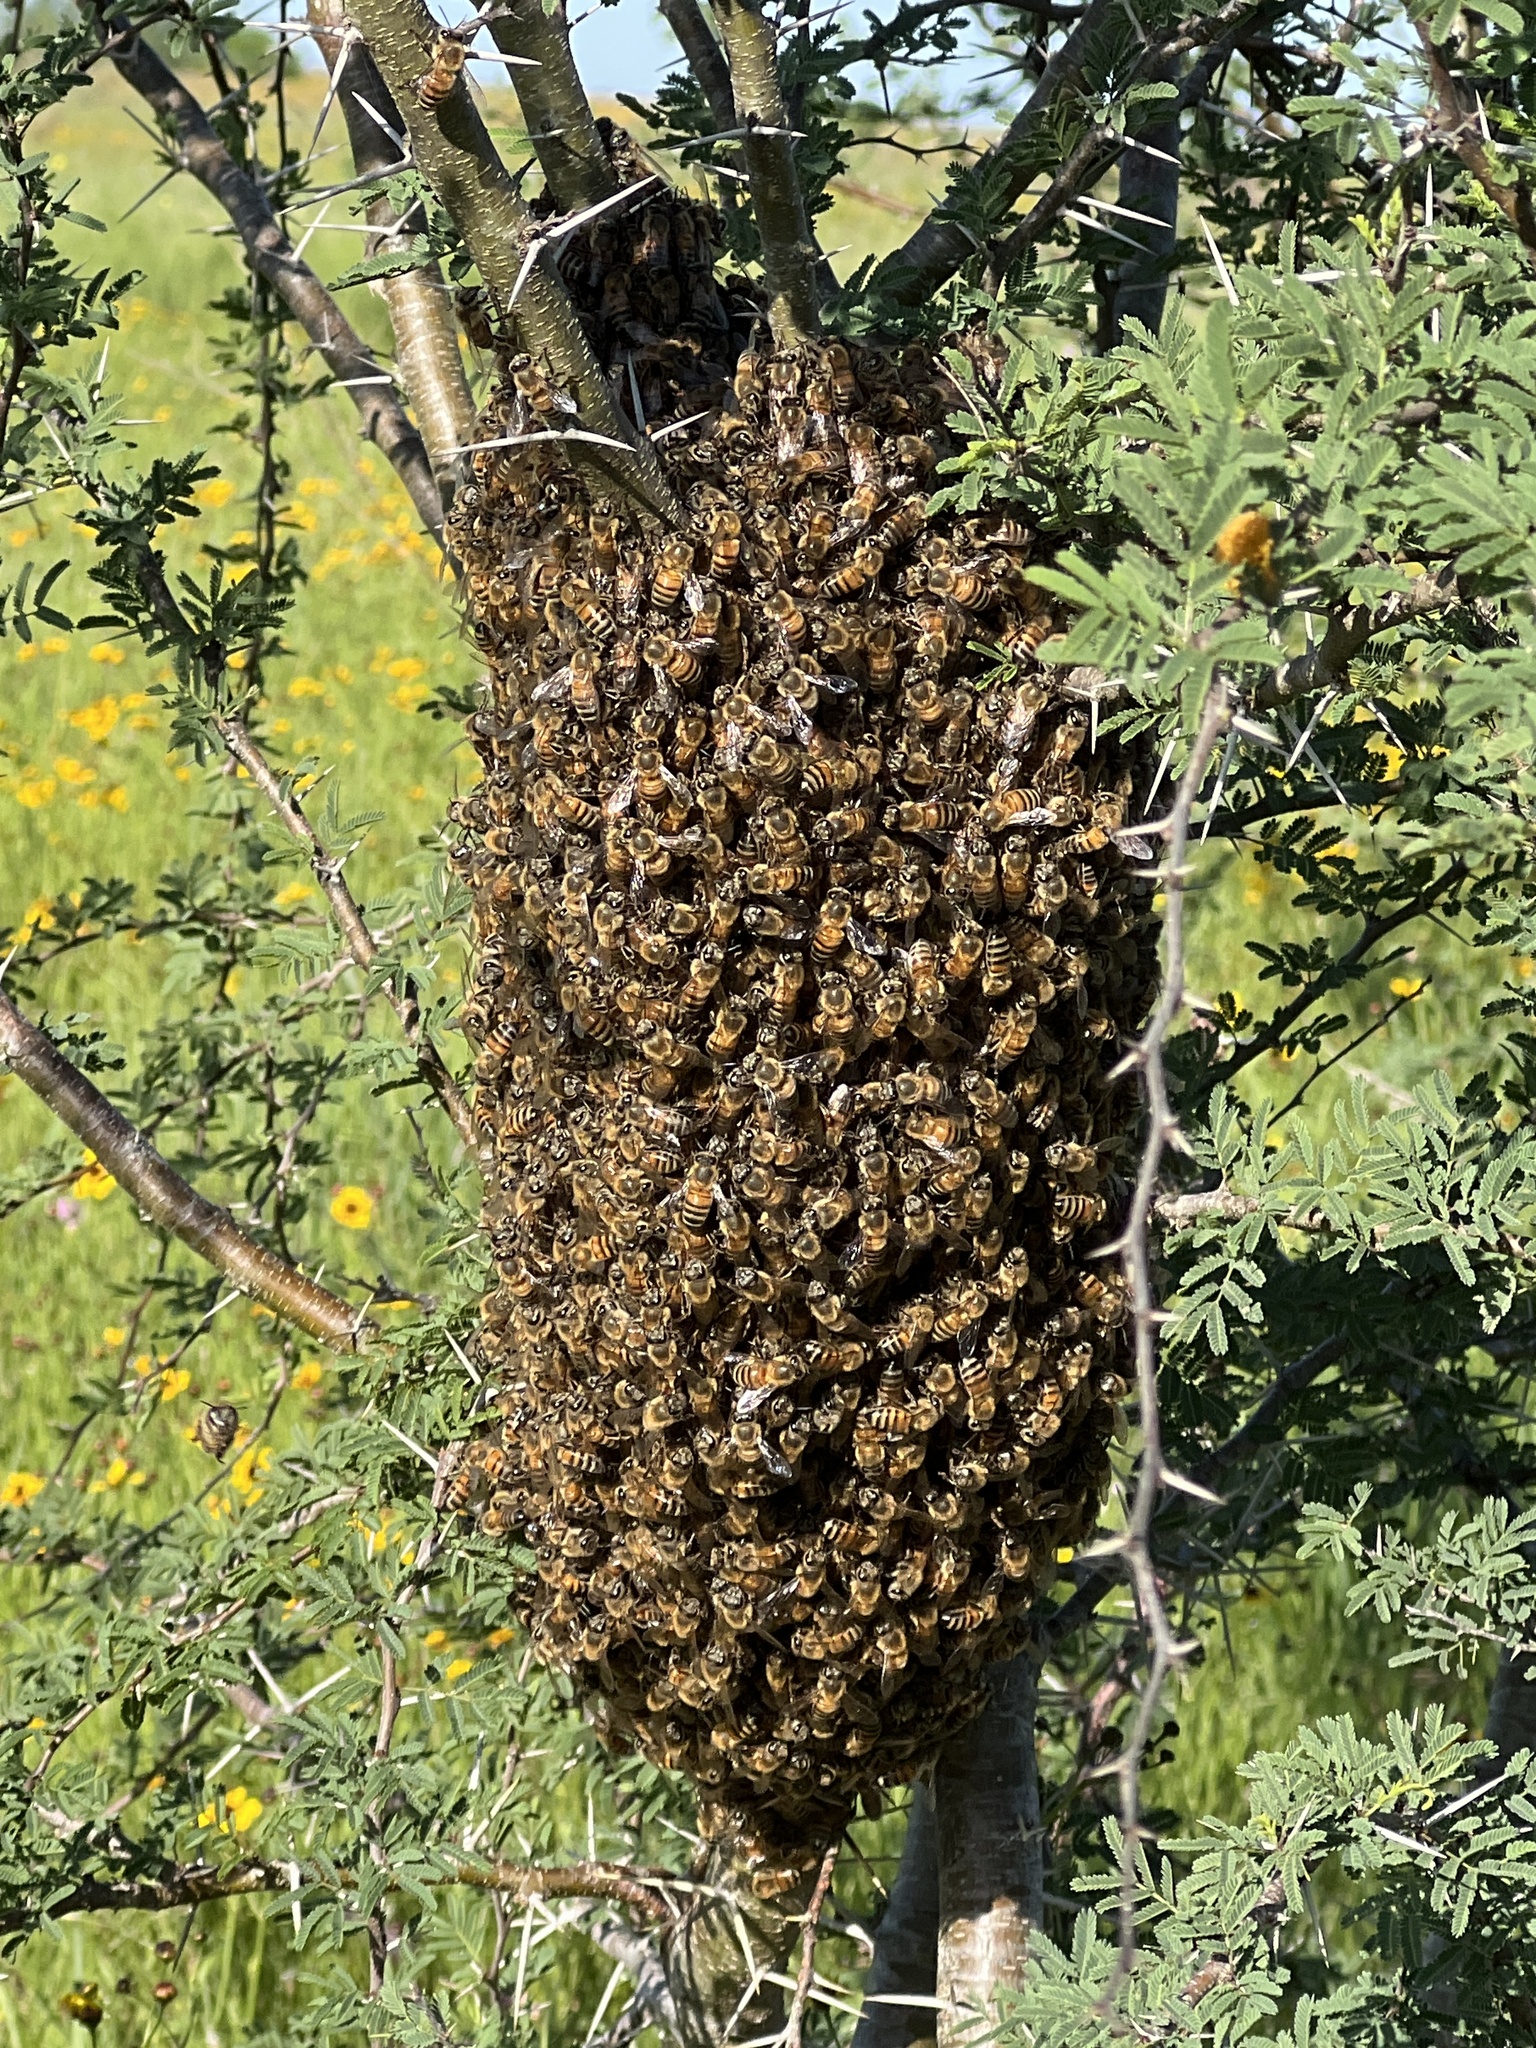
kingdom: Animalia
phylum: Arthropoda
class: Insecta
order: Hymenoptera
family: Apidae
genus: Apis
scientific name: Apis mellifera
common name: Honey bee
